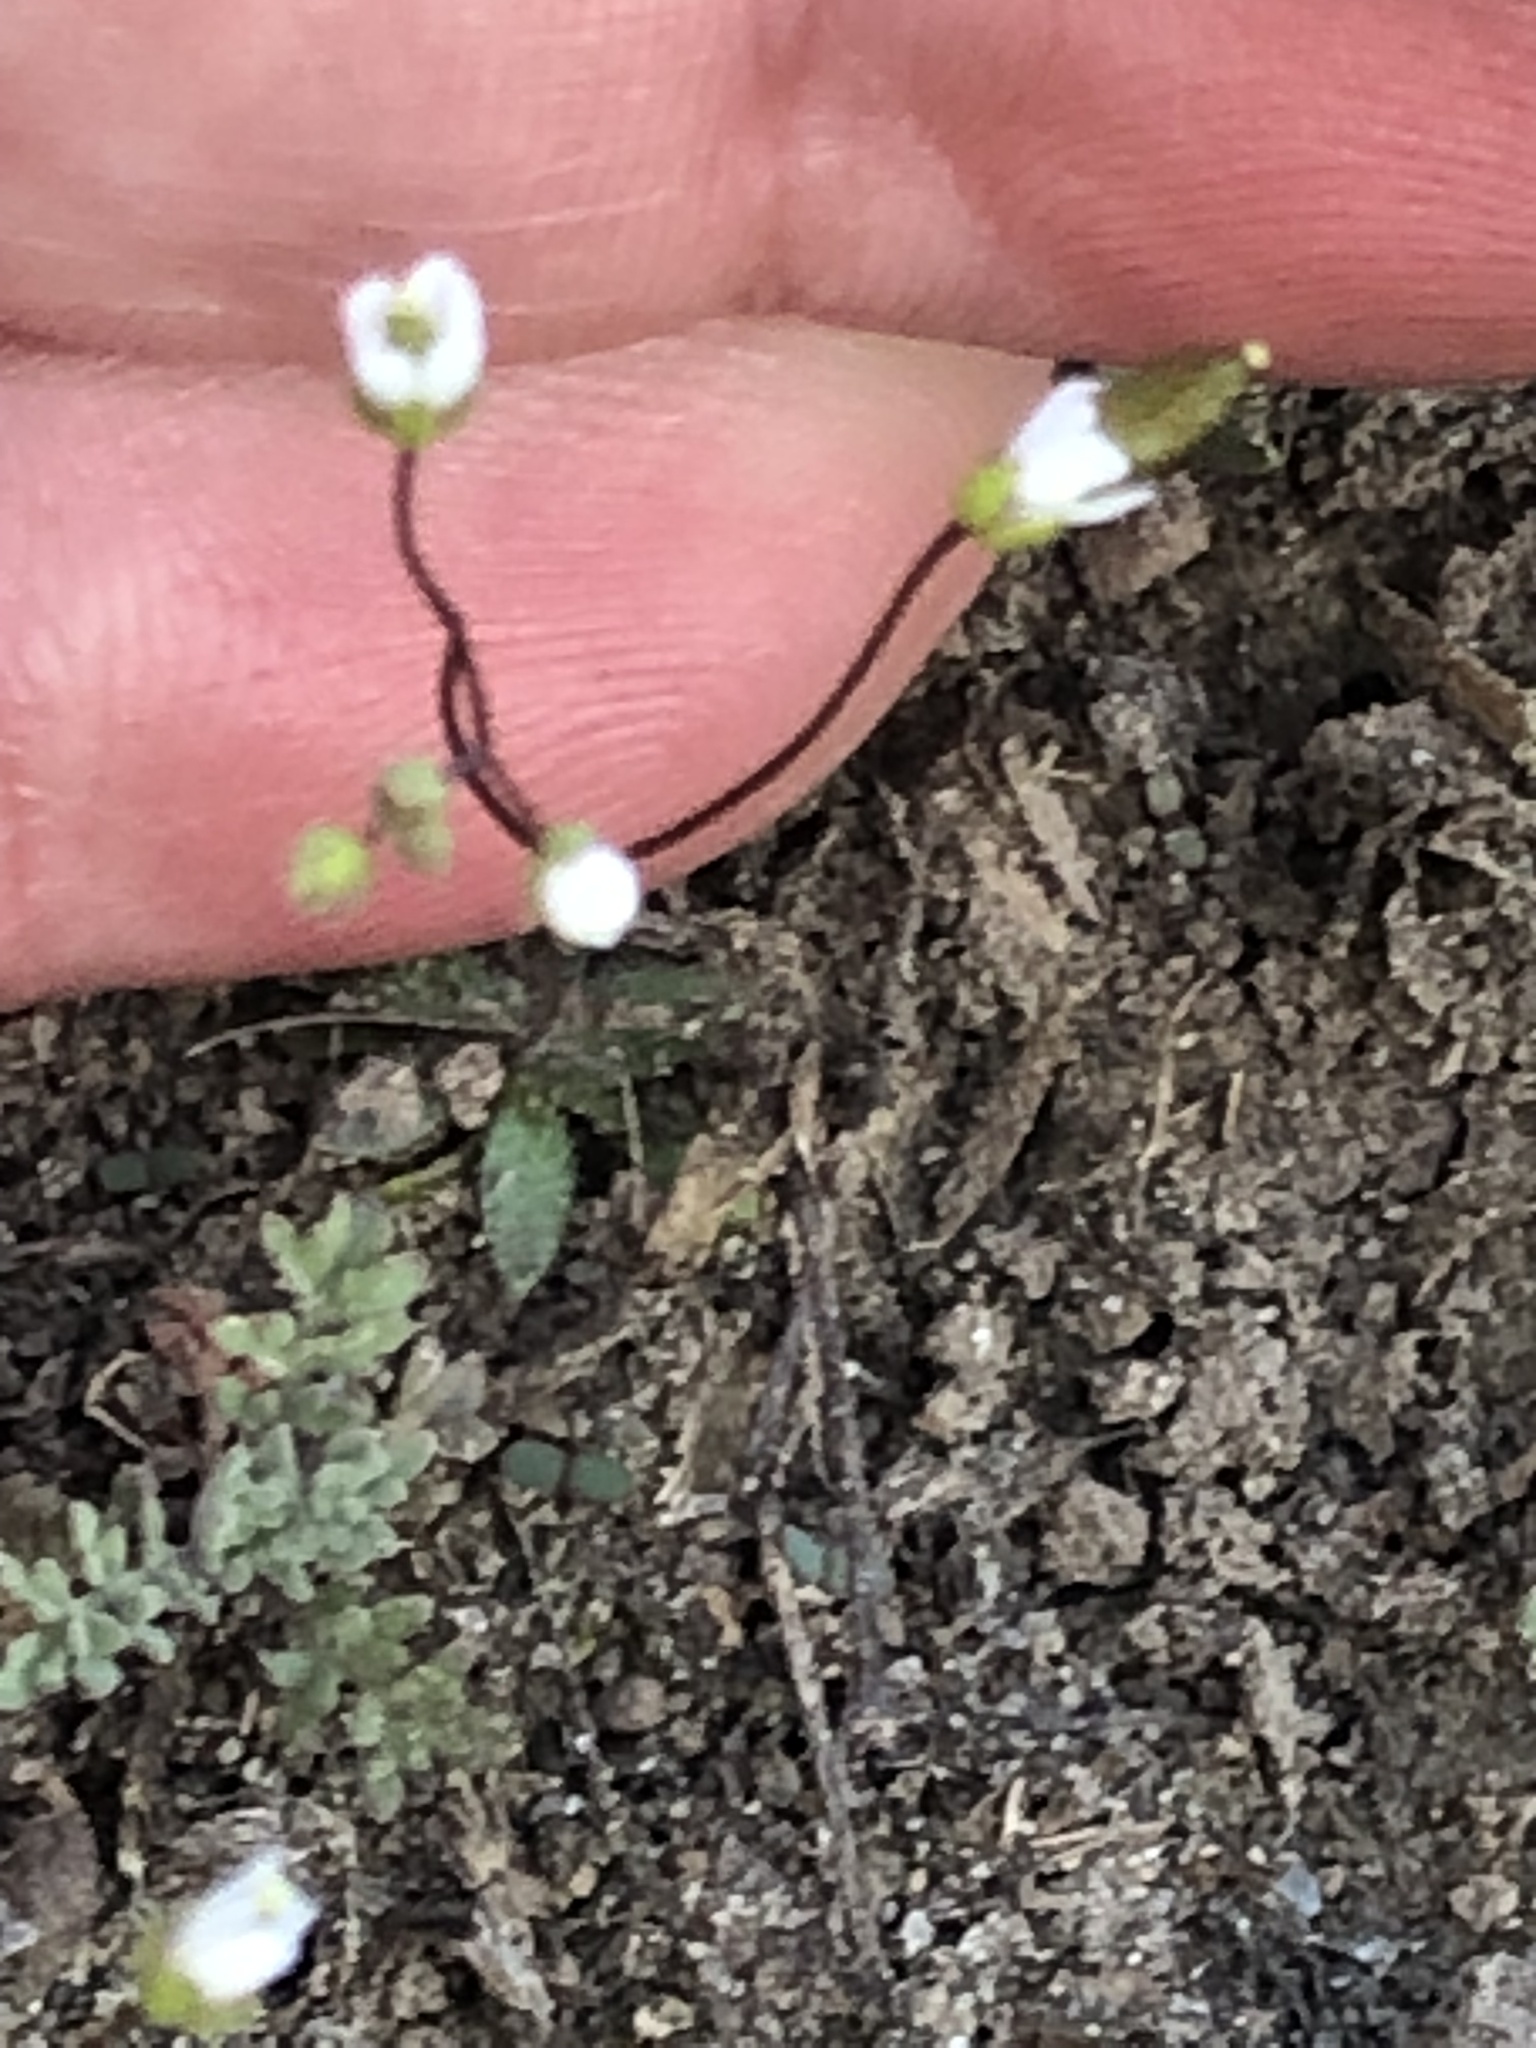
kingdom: Plantae
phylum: Tracheophyta
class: Magnoliopsida
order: Brassicales
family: Brassicaceae
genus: Draba
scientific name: Draba verna
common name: Spring draba
